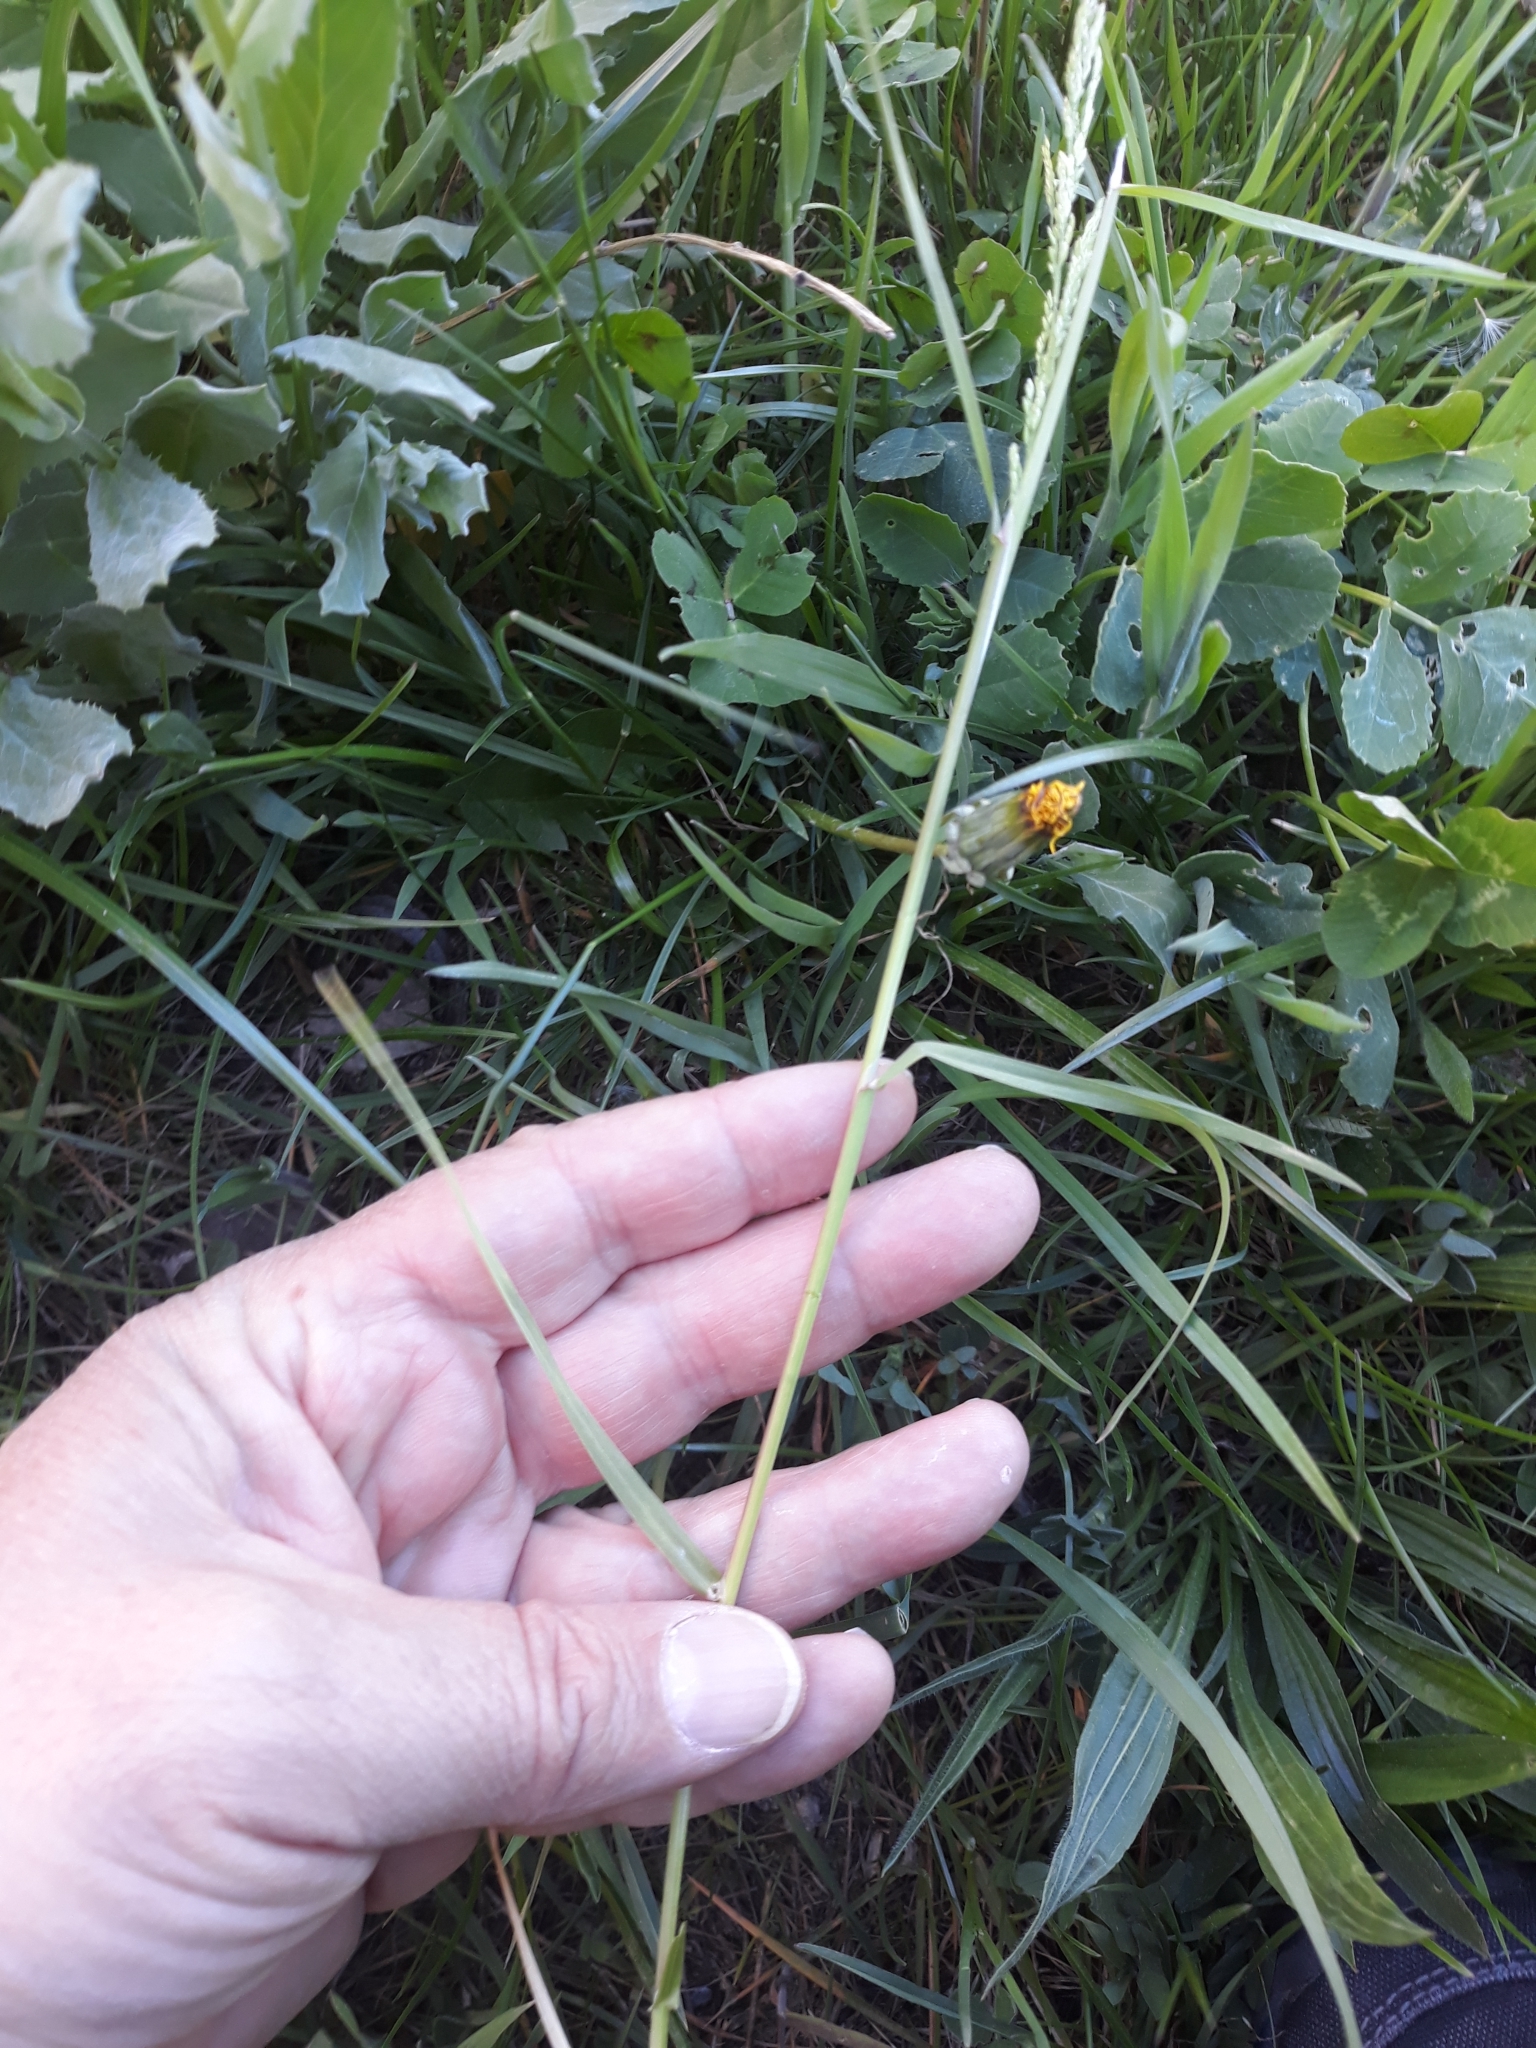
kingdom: Plantae
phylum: Tracheophyta
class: Liliopsida
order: Poales
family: Poaceae
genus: Poa
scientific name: Poa trivialis
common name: Rough bluegrass
